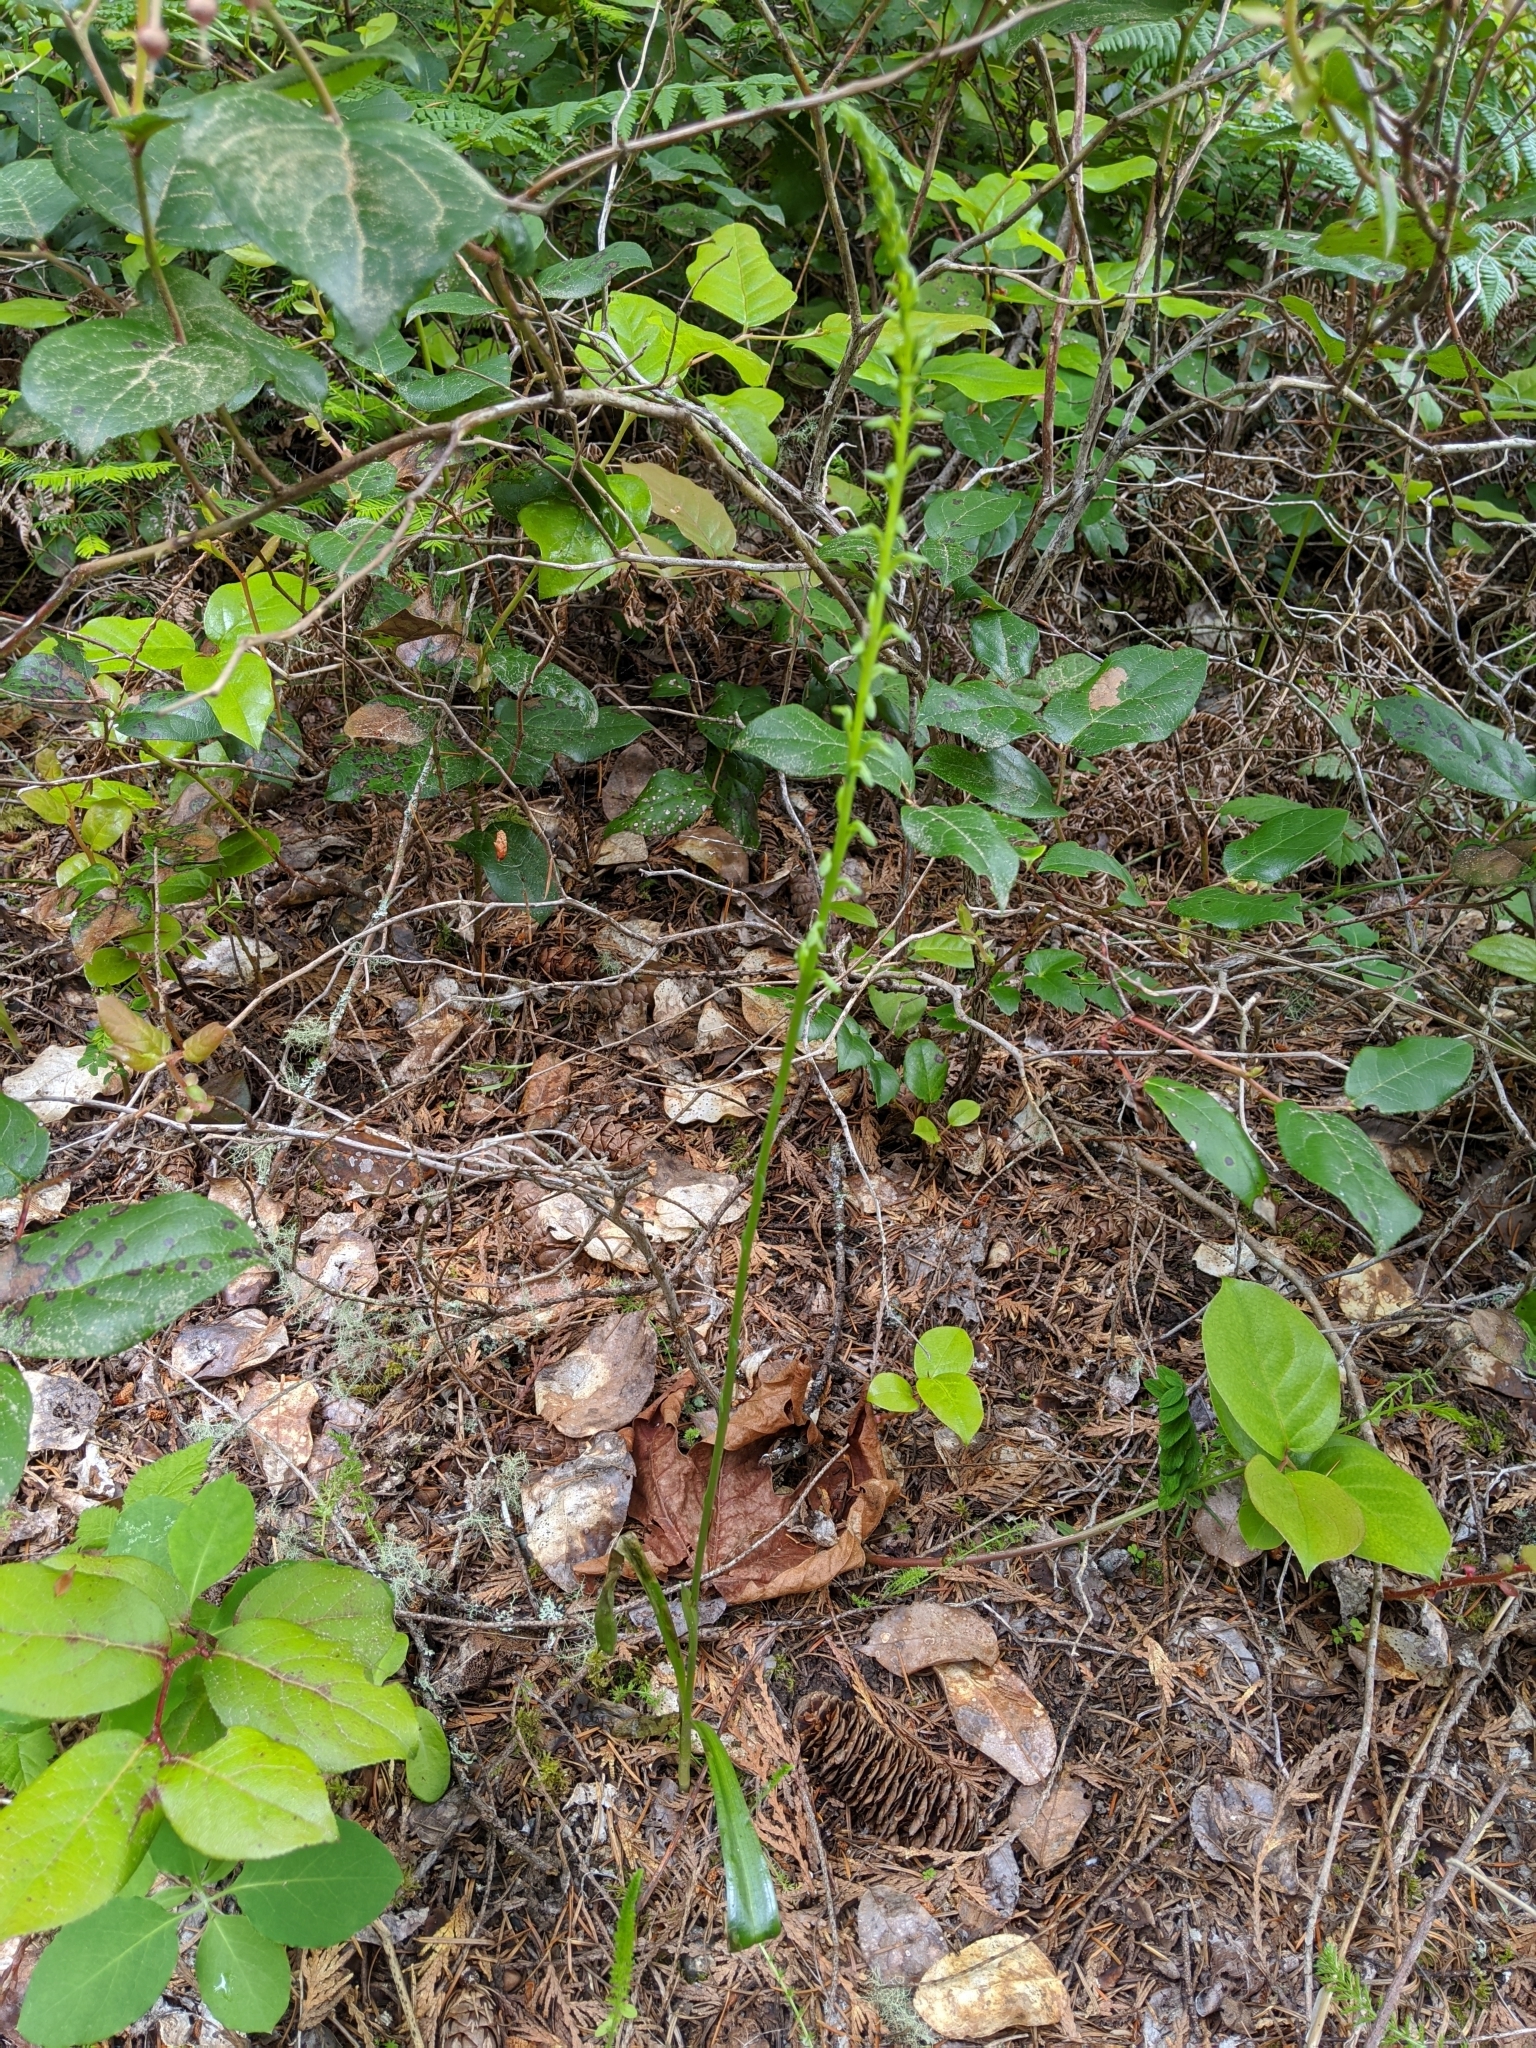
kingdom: Plantae
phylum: Tracheophyta
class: Liliopsida
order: Asparagales
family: Orchidaceae
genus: Platanthera
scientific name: Platanthera unalascensis
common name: Alaska bog orchid
